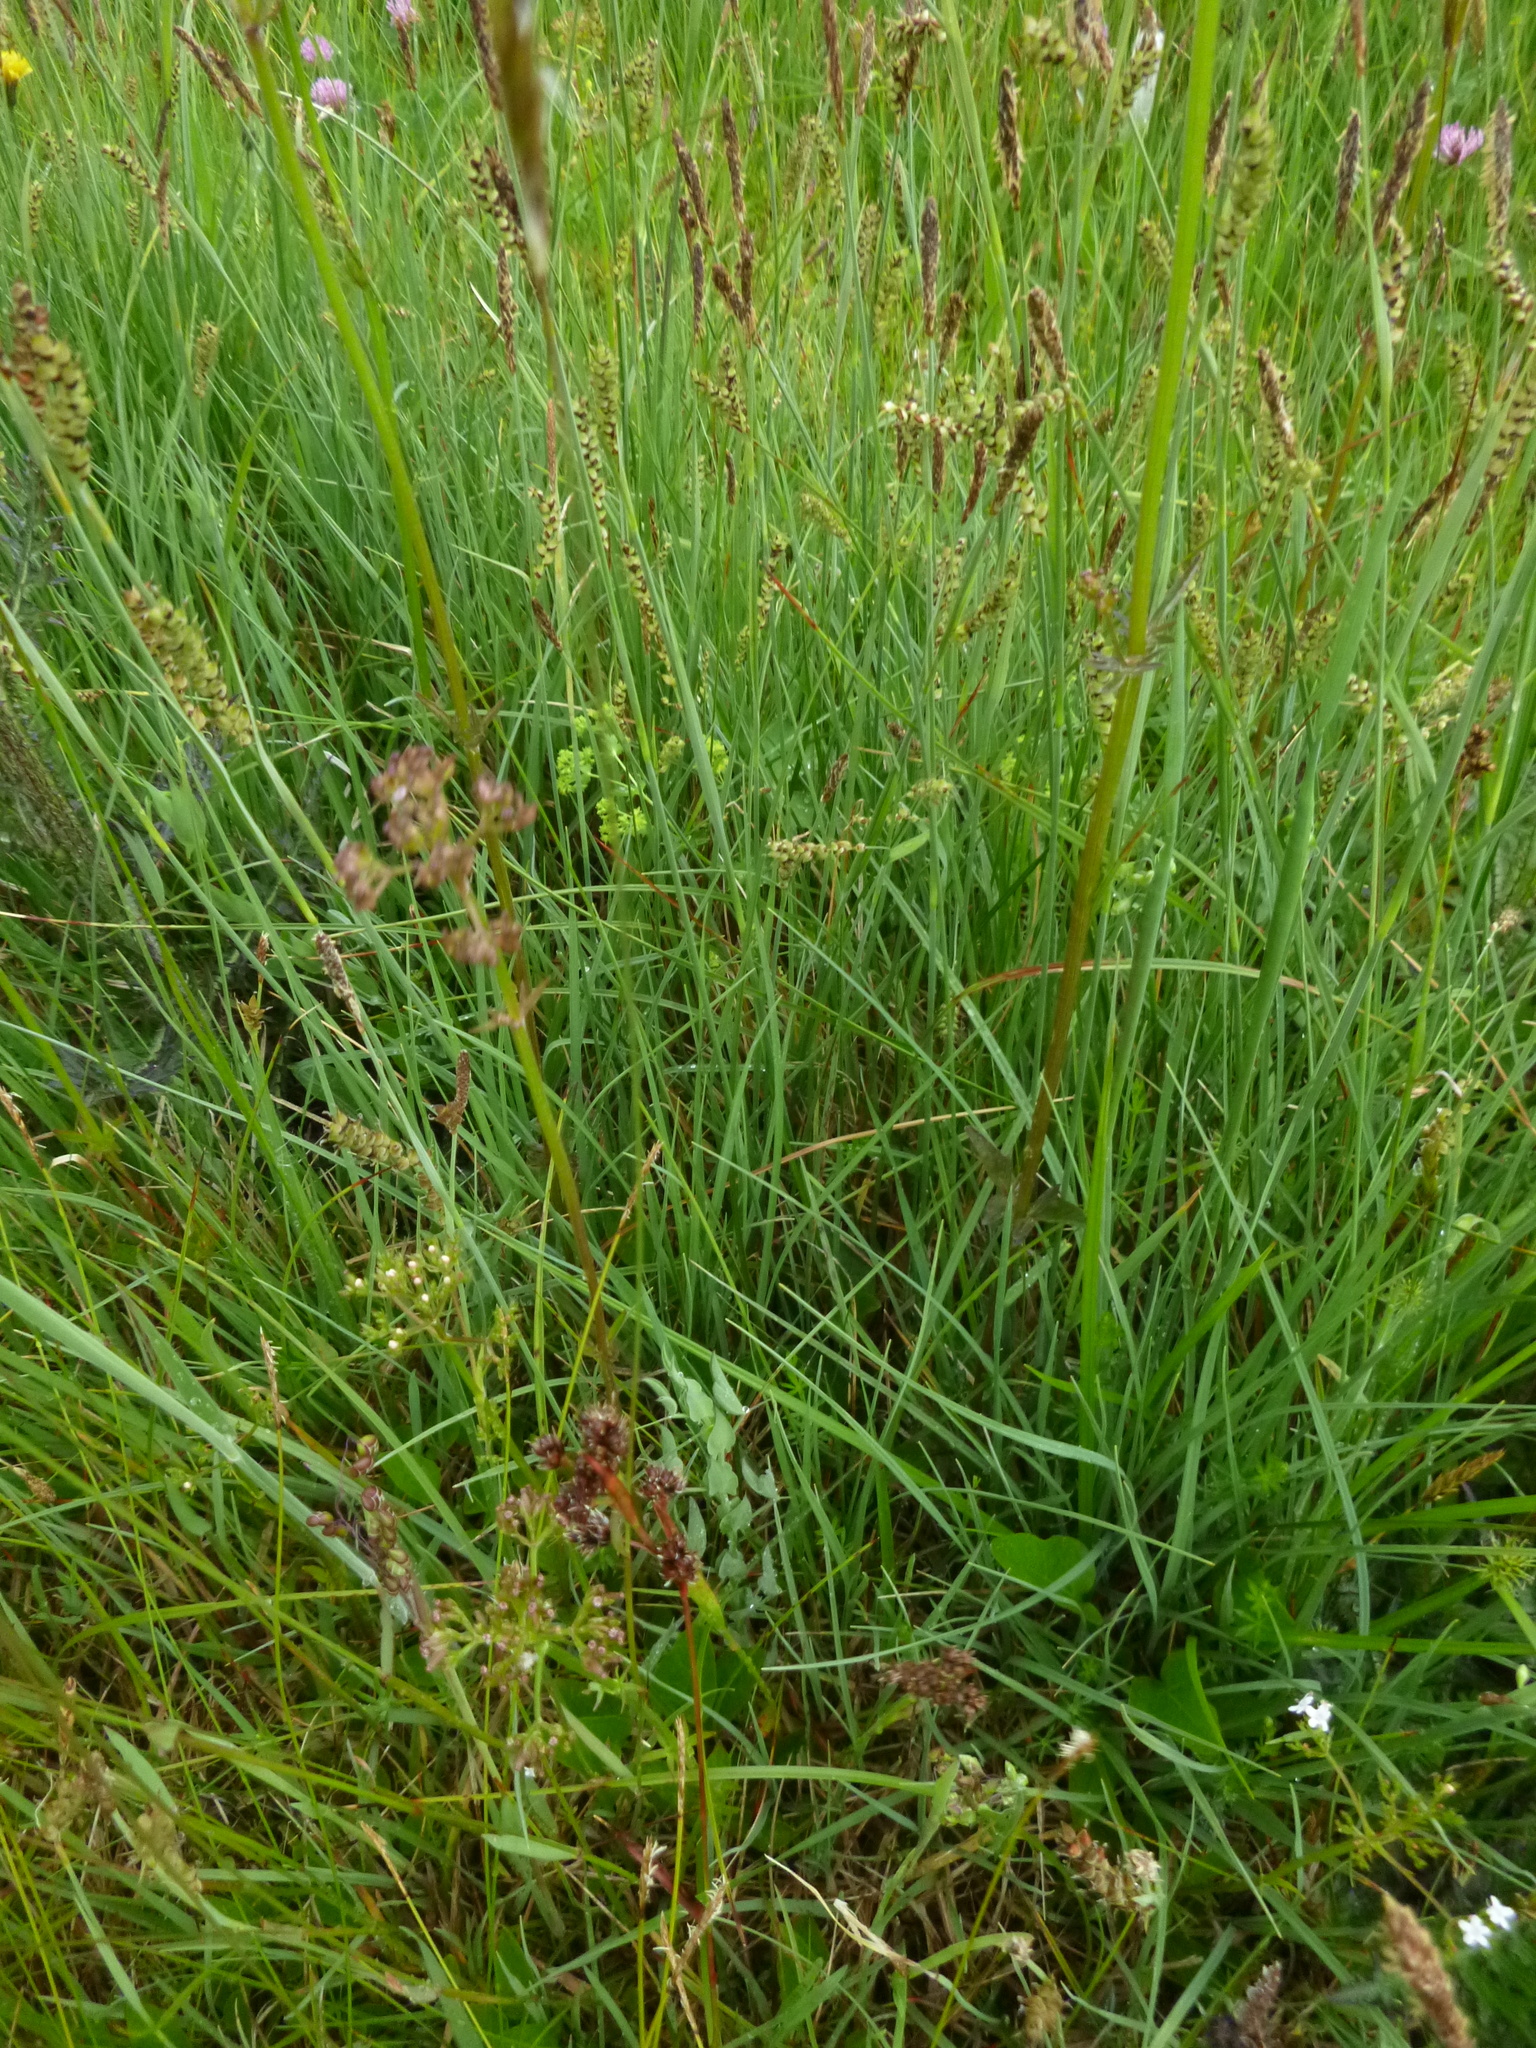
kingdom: Plantae
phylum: Tracheophyta
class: Liliopsida
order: Poales
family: Cyperaceae
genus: Carex
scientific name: Carex panicea
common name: Carnation sedge
